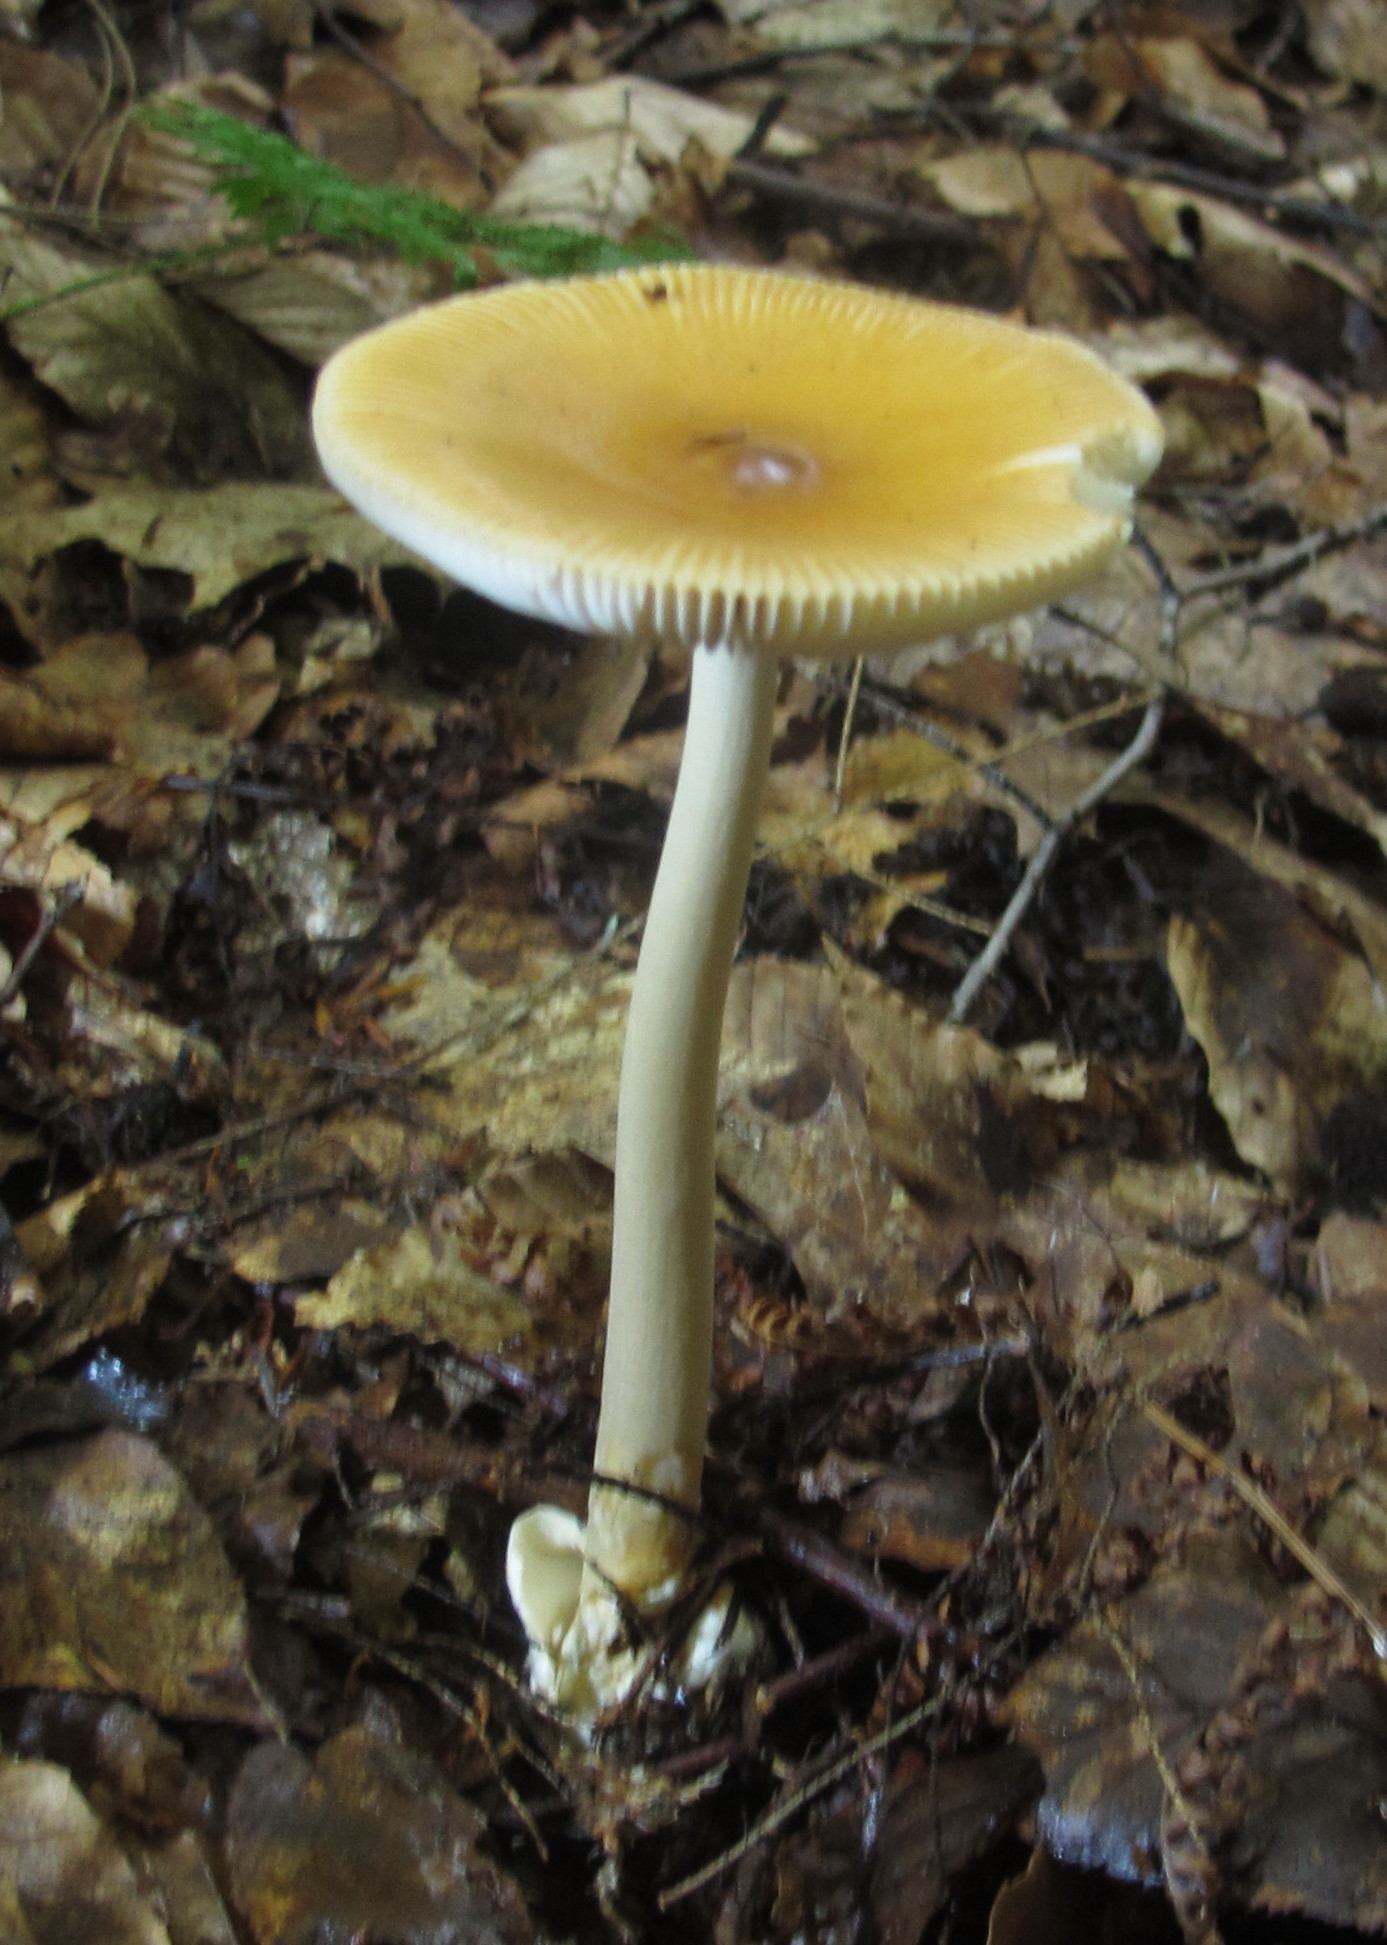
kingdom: Fungi
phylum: Basidiomycota
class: Agaricomycetes
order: Agaricales
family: Amanitaceae
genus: Amanita
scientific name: Amanita fulva
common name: Tawny grisette
